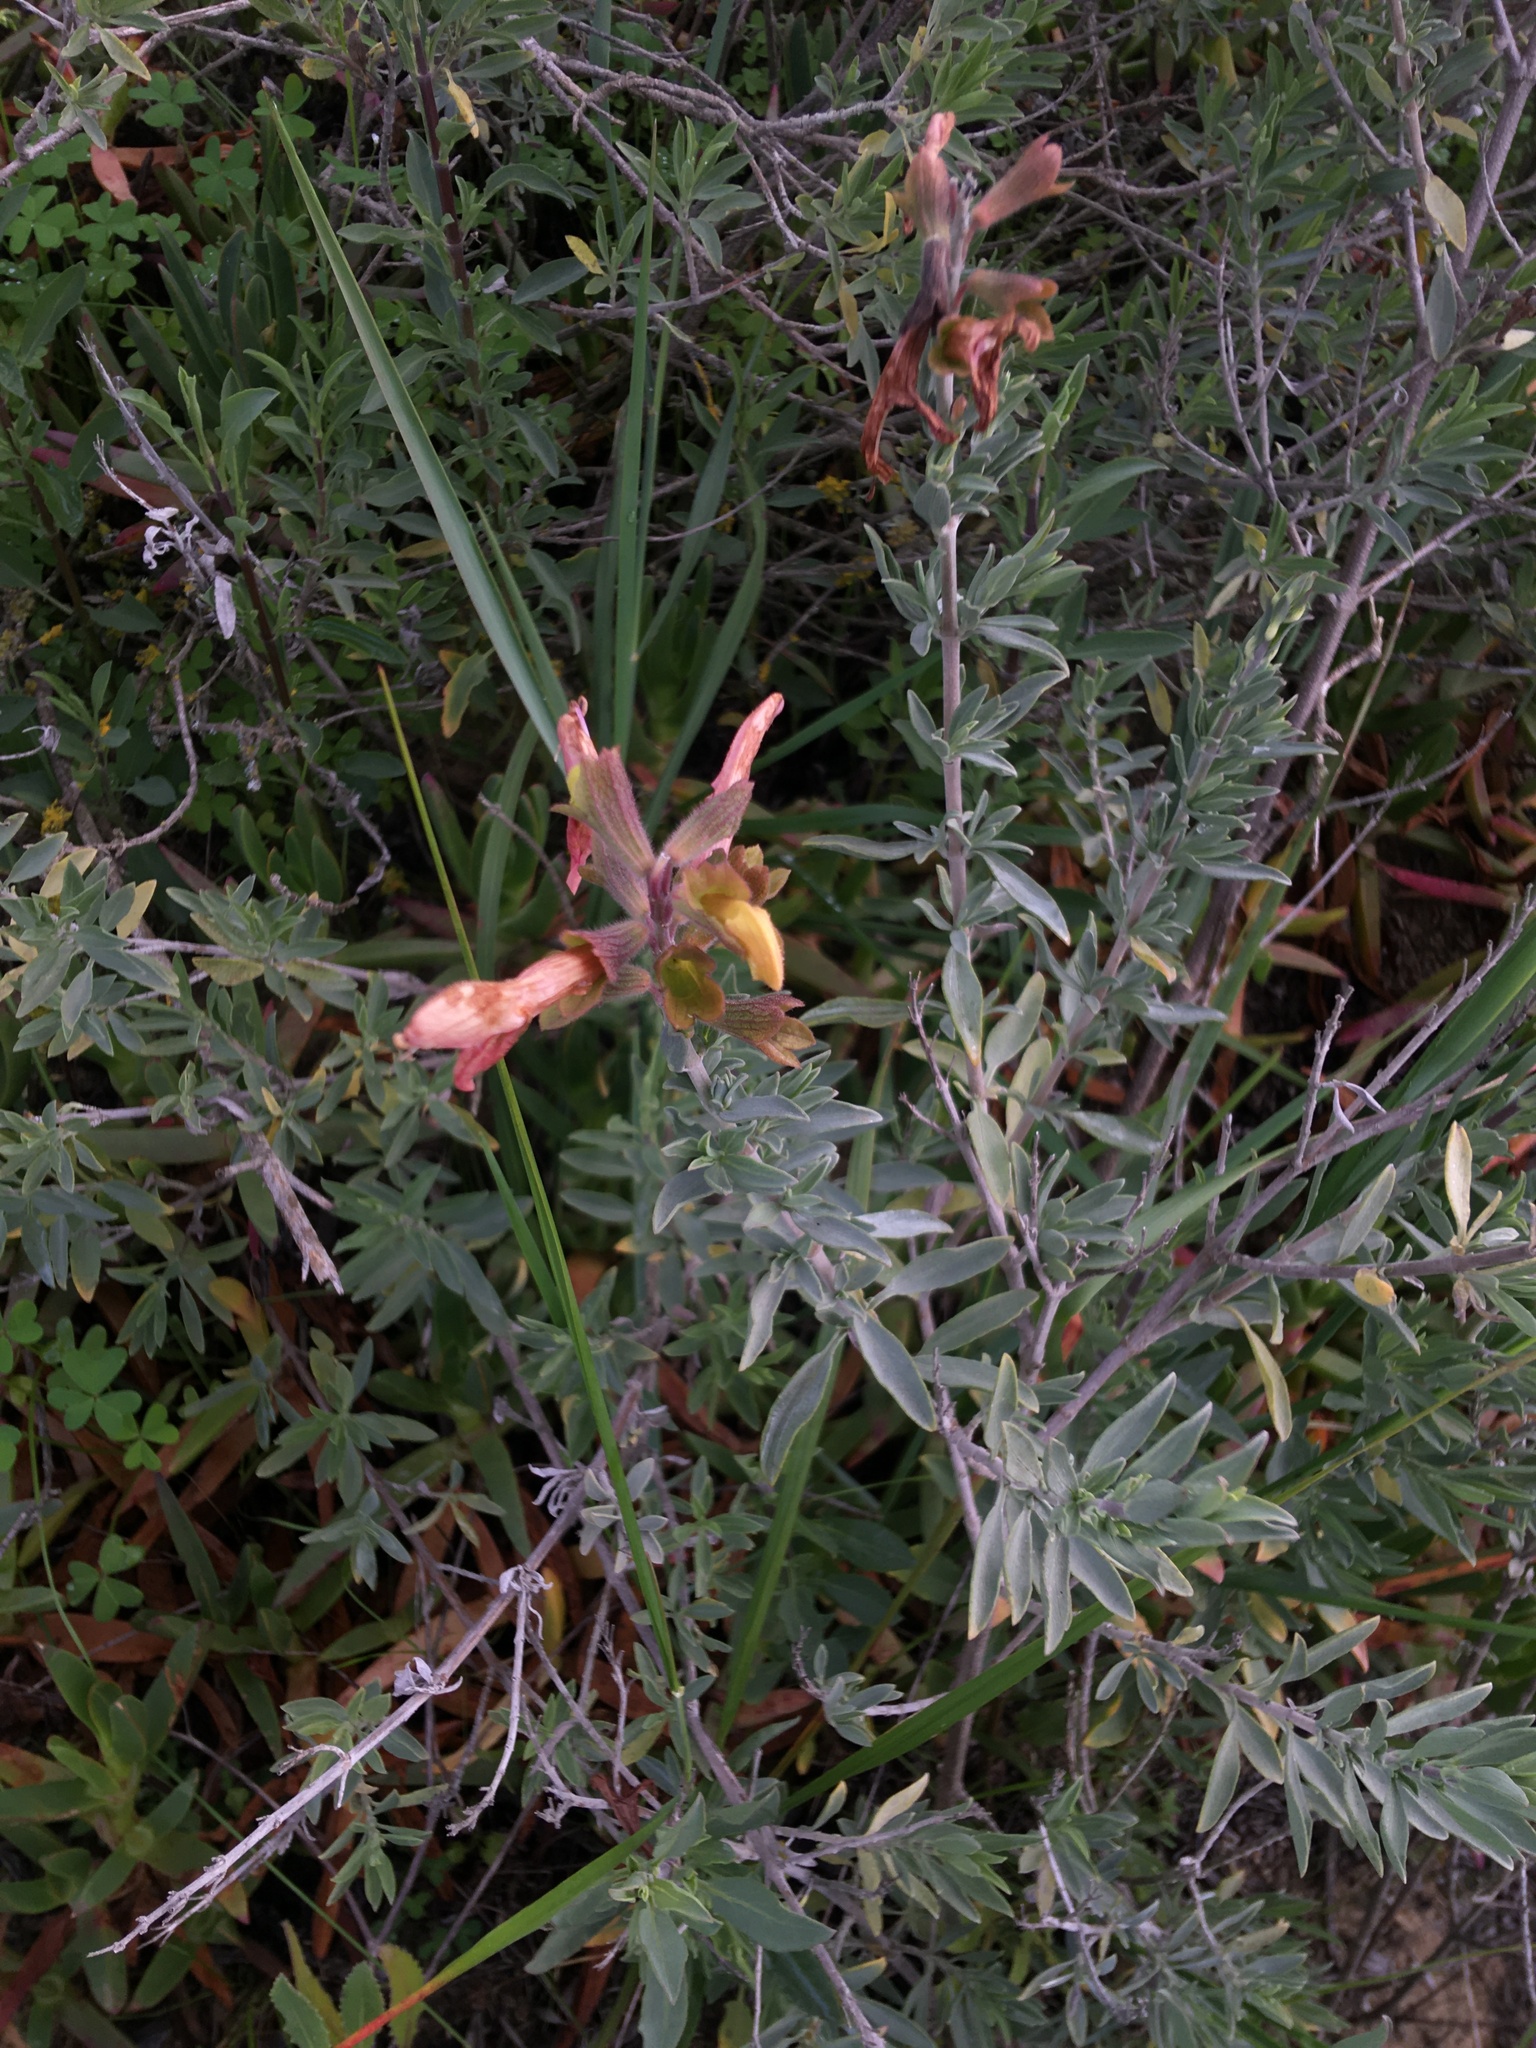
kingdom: Plantae
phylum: Tracheophyta
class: Magnoliopsida
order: Lamiales
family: Lamiaceae
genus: Salvia
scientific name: Salvia lanceolata
